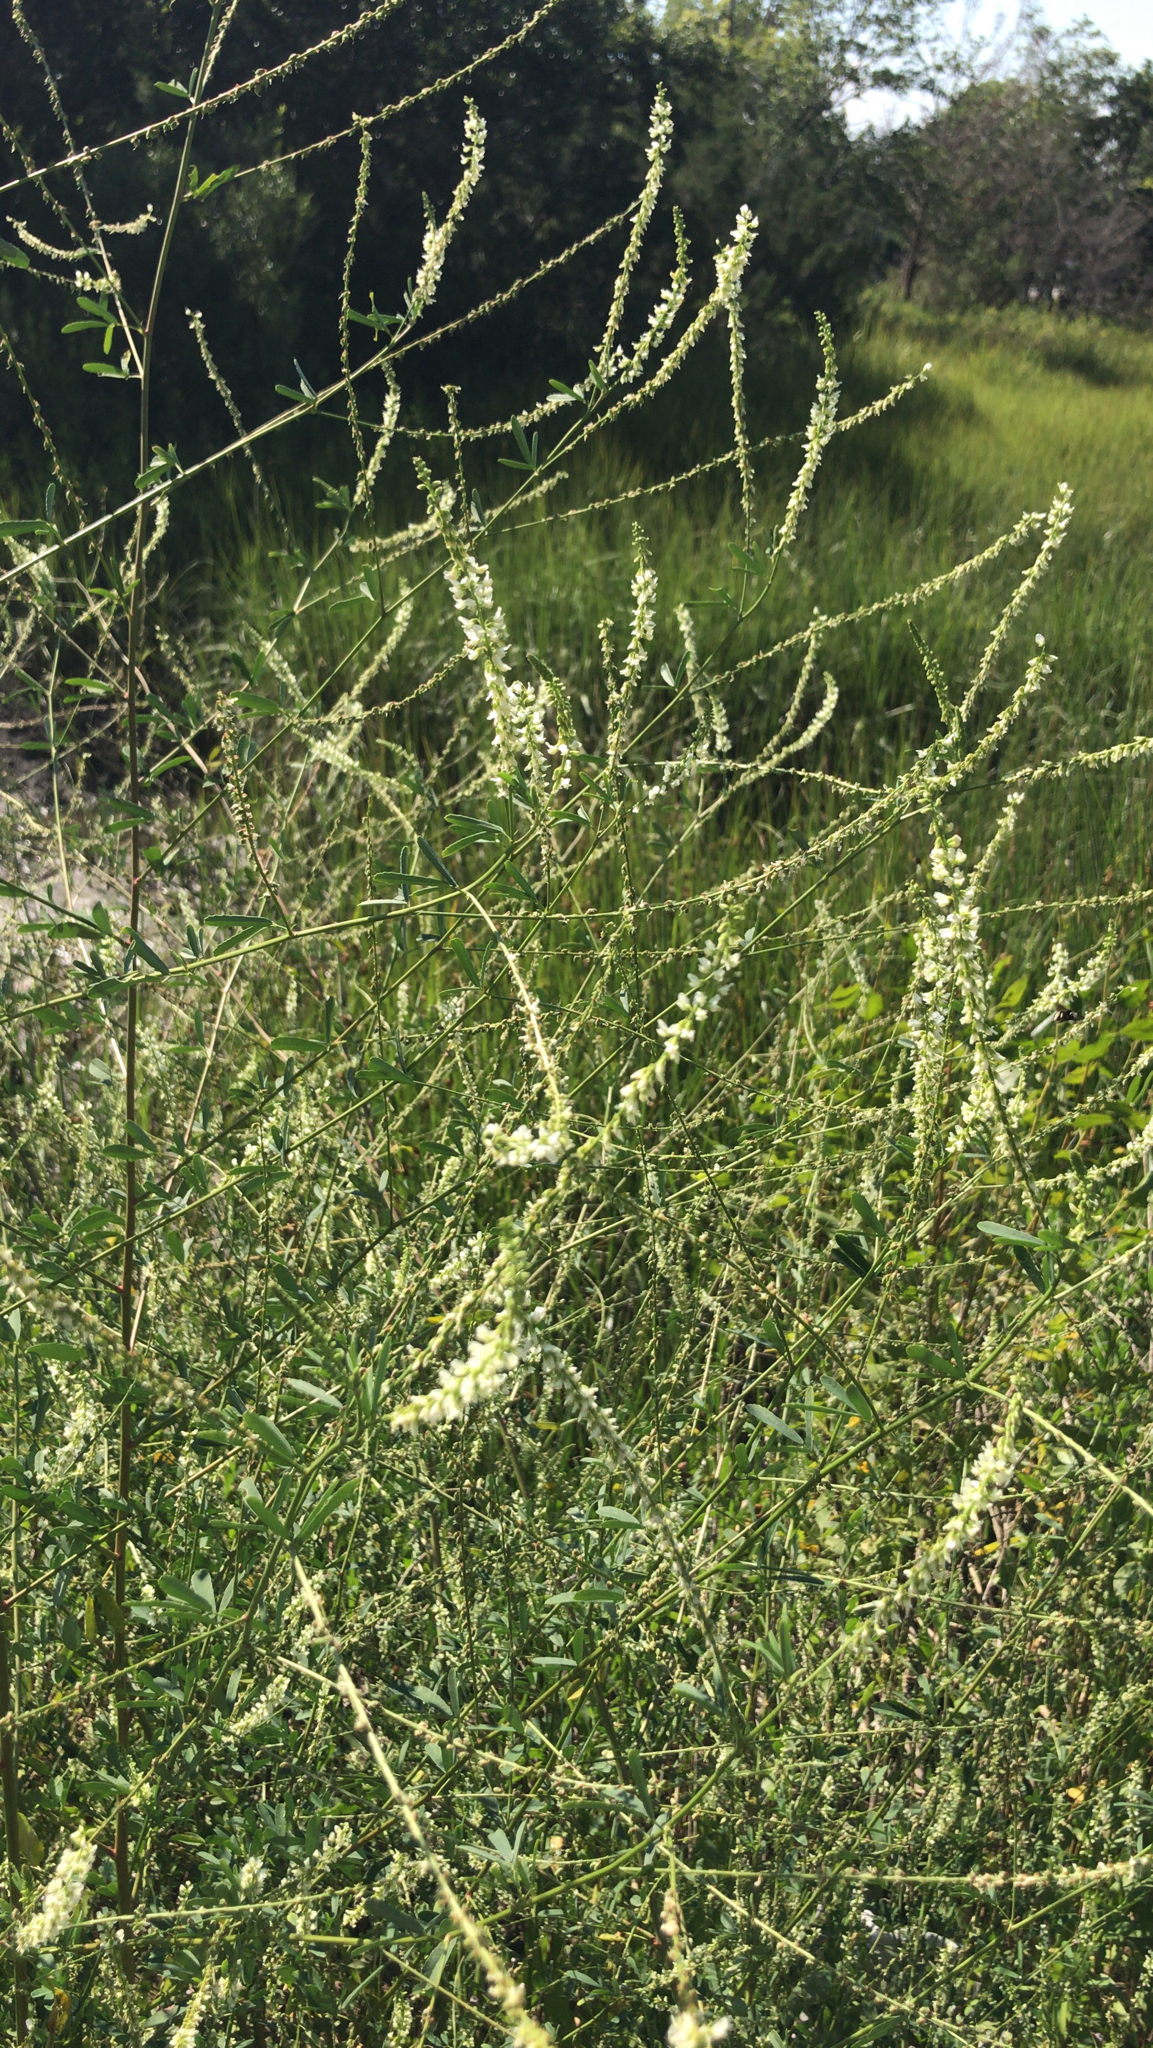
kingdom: Plantae
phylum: Tracheophyta
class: Magnoliopsida
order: Fabales
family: Fabaceae
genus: Melilotus
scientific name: Melilotus albus
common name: White melilot
